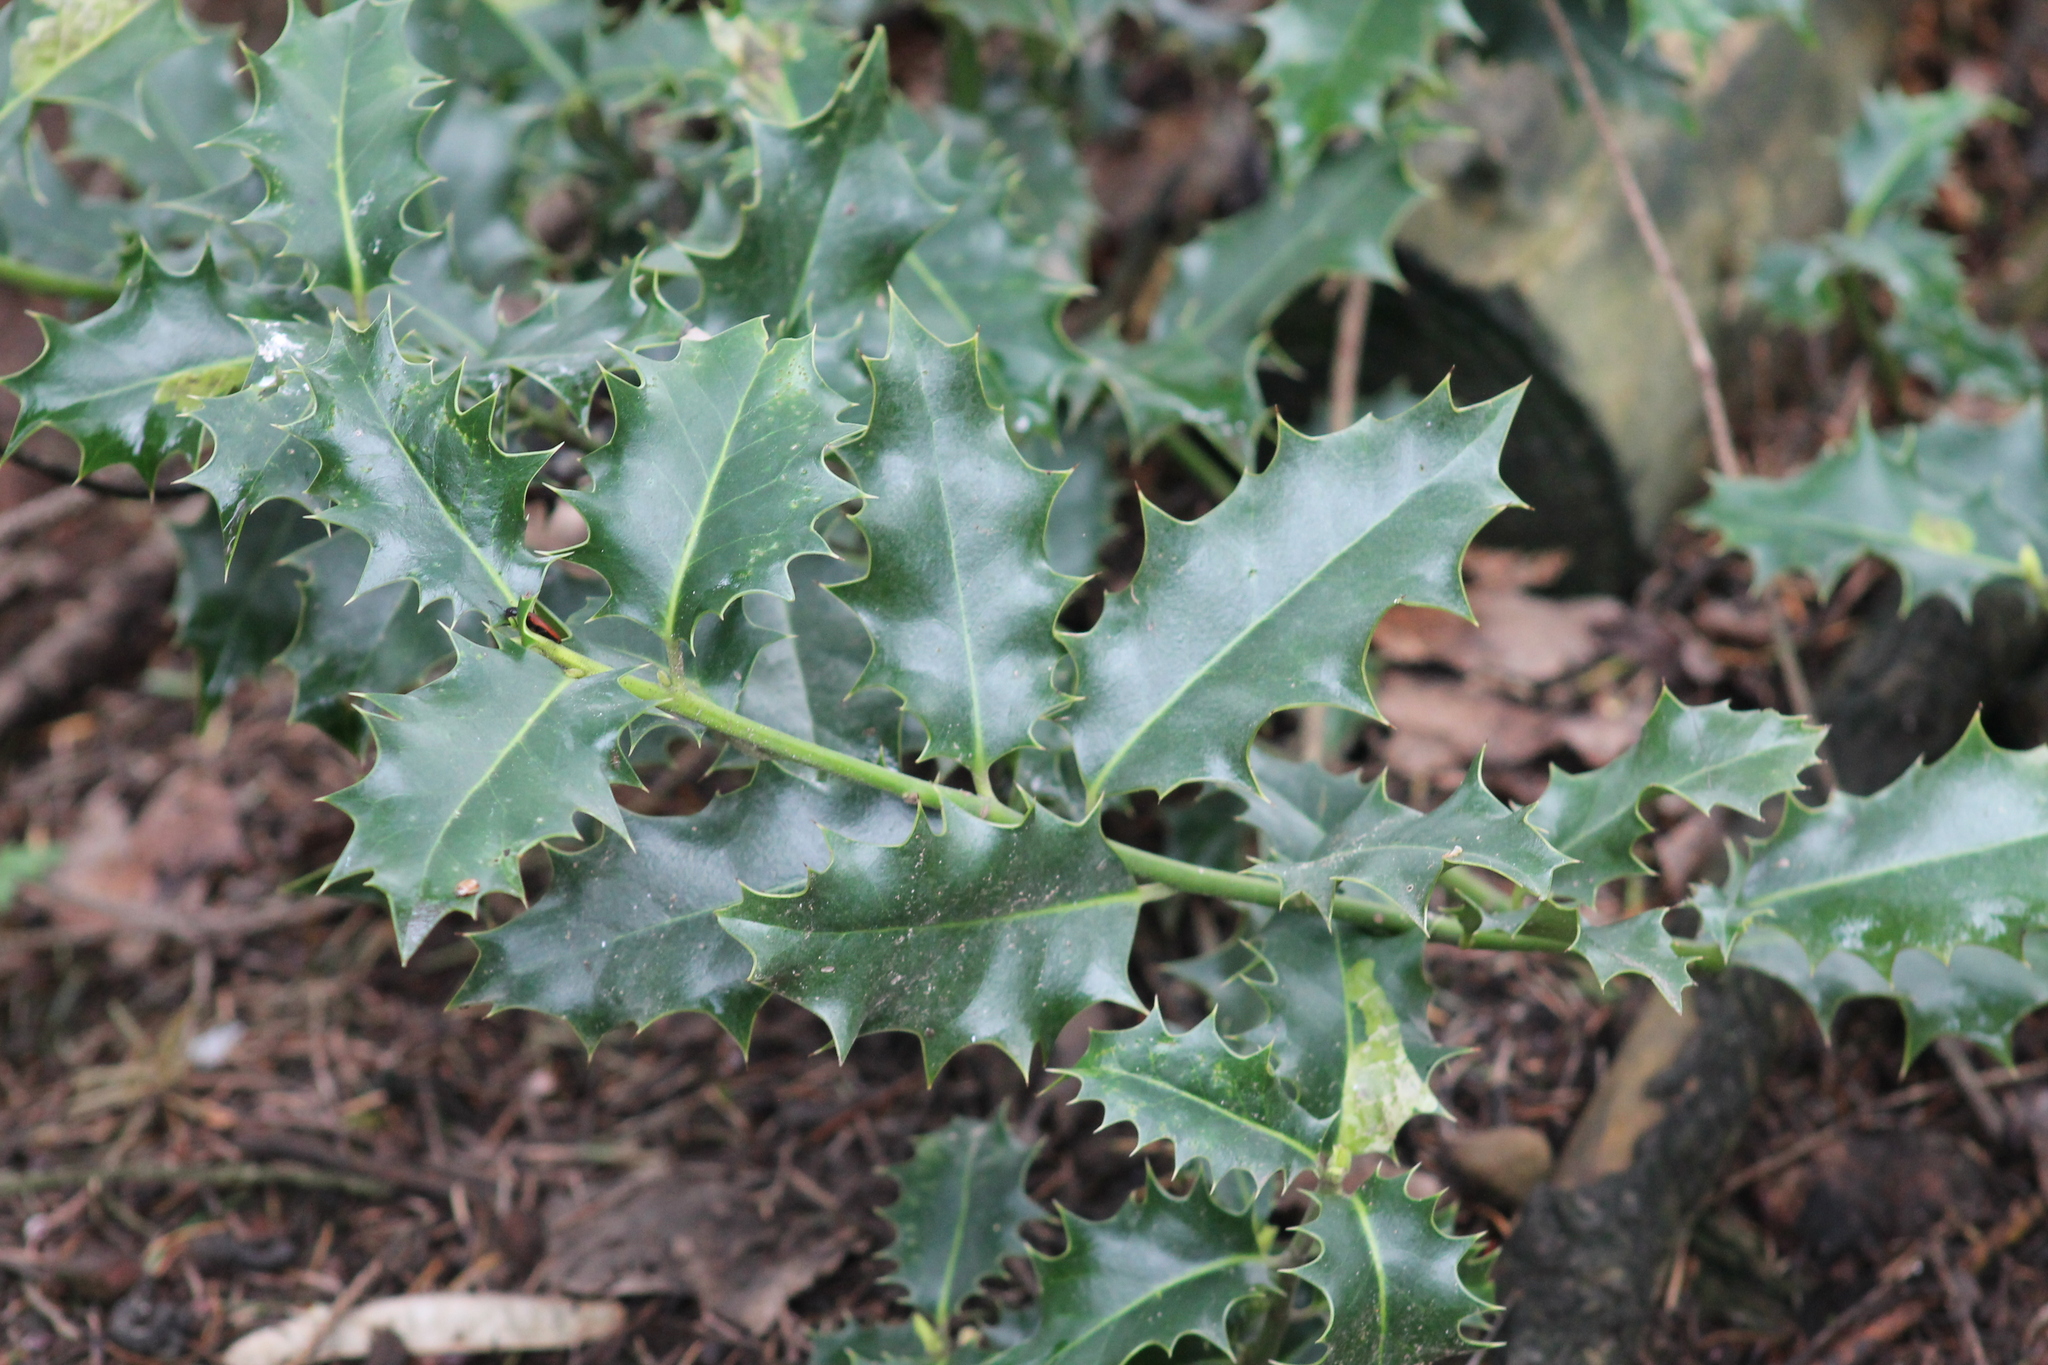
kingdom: Plantae
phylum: Tracheophyta
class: Magnoliopsida
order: Aquifoliales
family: Aquifoliaceae
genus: Ilex
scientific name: Ilex aquifolium
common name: English holly
